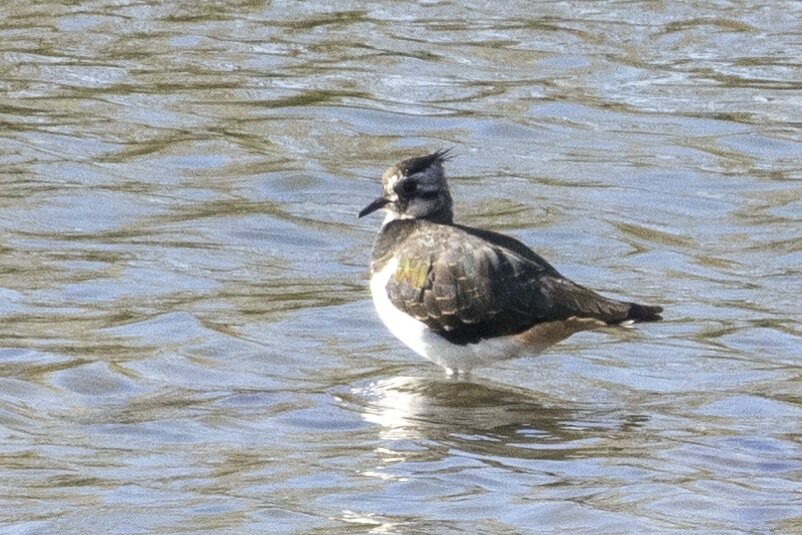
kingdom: Animalia
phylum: Chordata
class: Aves
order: Charadriiformes
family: Charadriidae
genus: Vanellus
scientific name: Vanellus vanellus
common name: Northern lapwing
